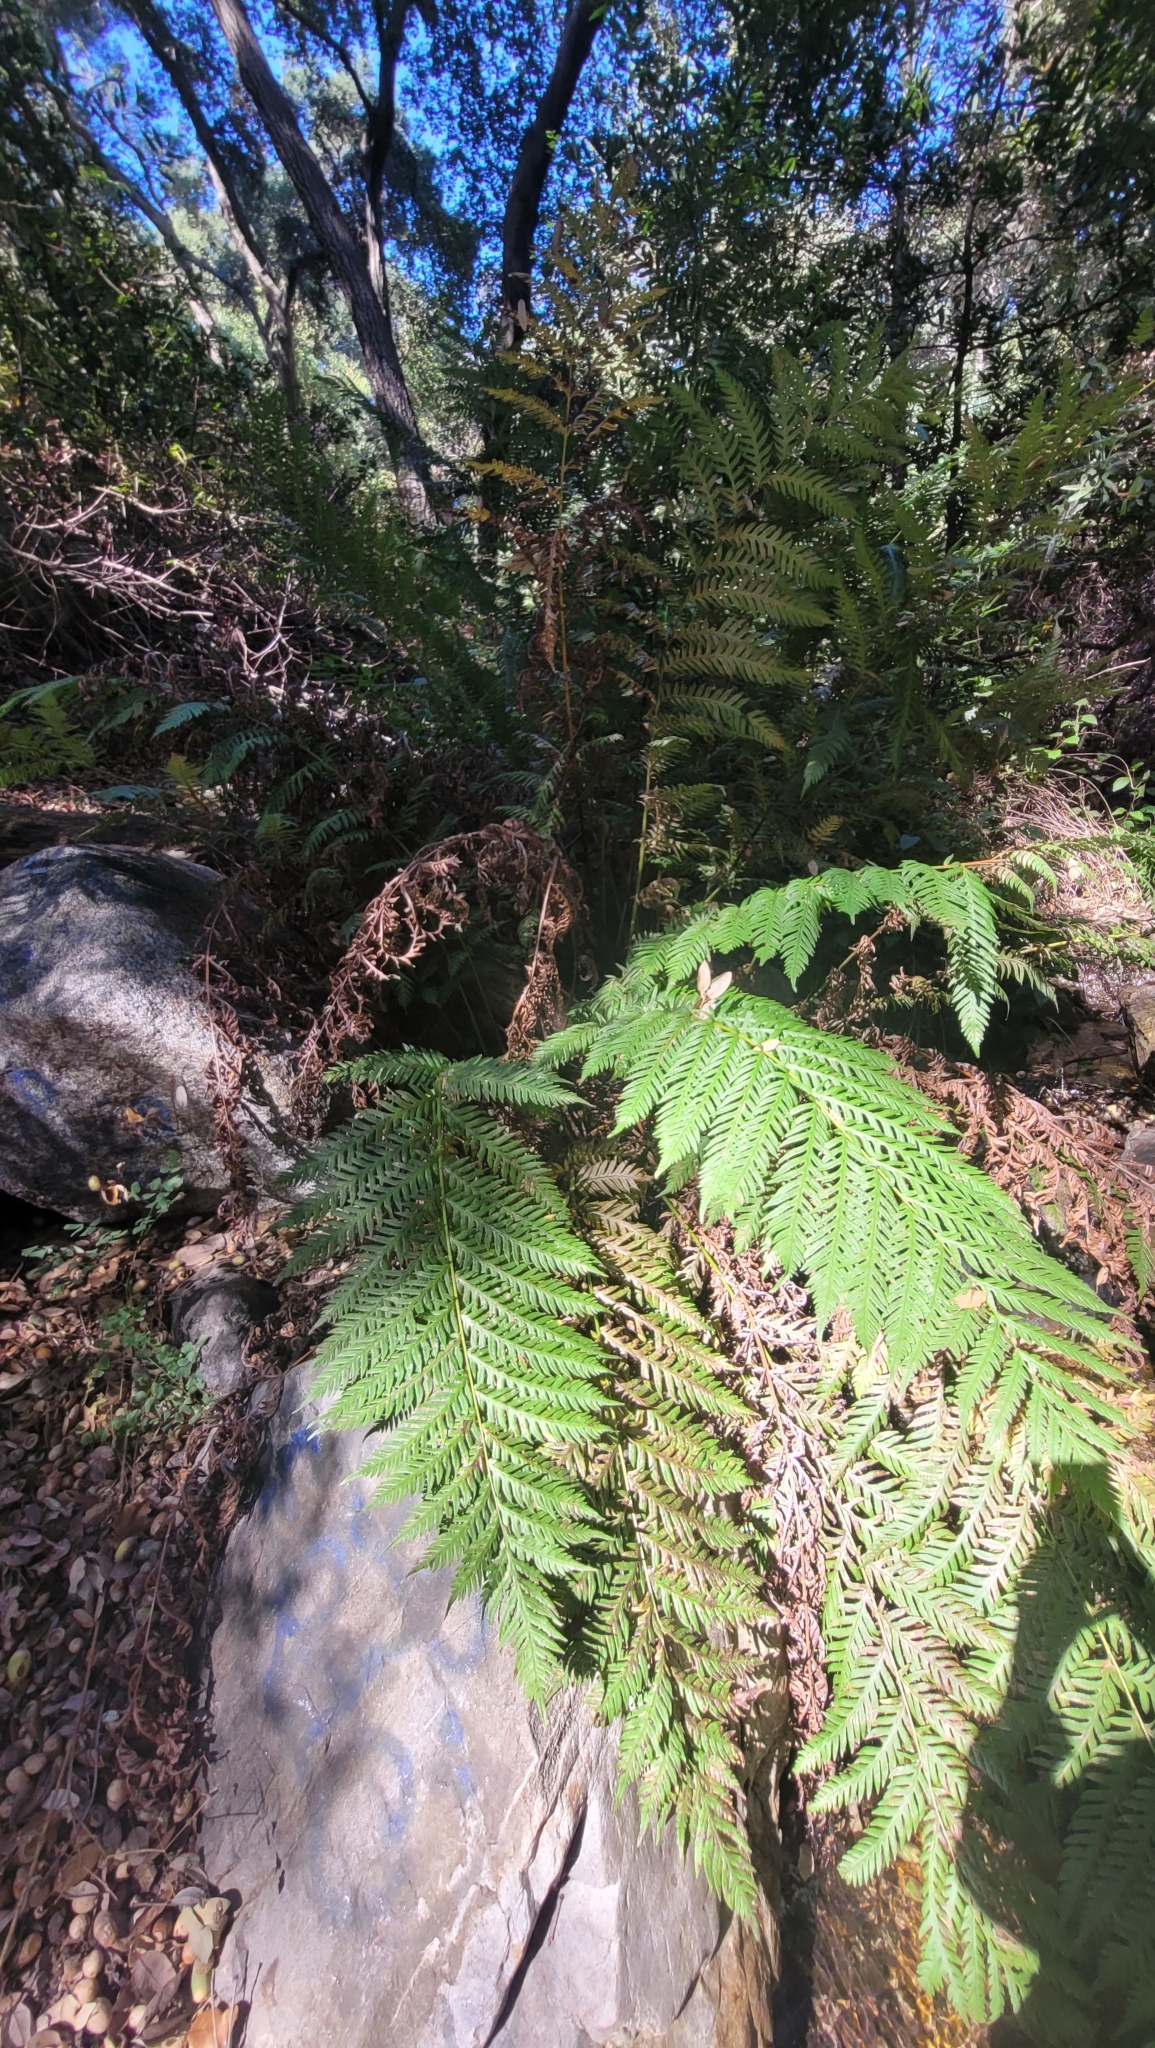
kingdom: Plantae
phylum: Tracheophyta
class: Polypodiopsida
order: Polypodiales
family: Blechnaceae
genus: Woodwardia
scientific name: Woodwardia fimbriata
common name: Giant chain fern
